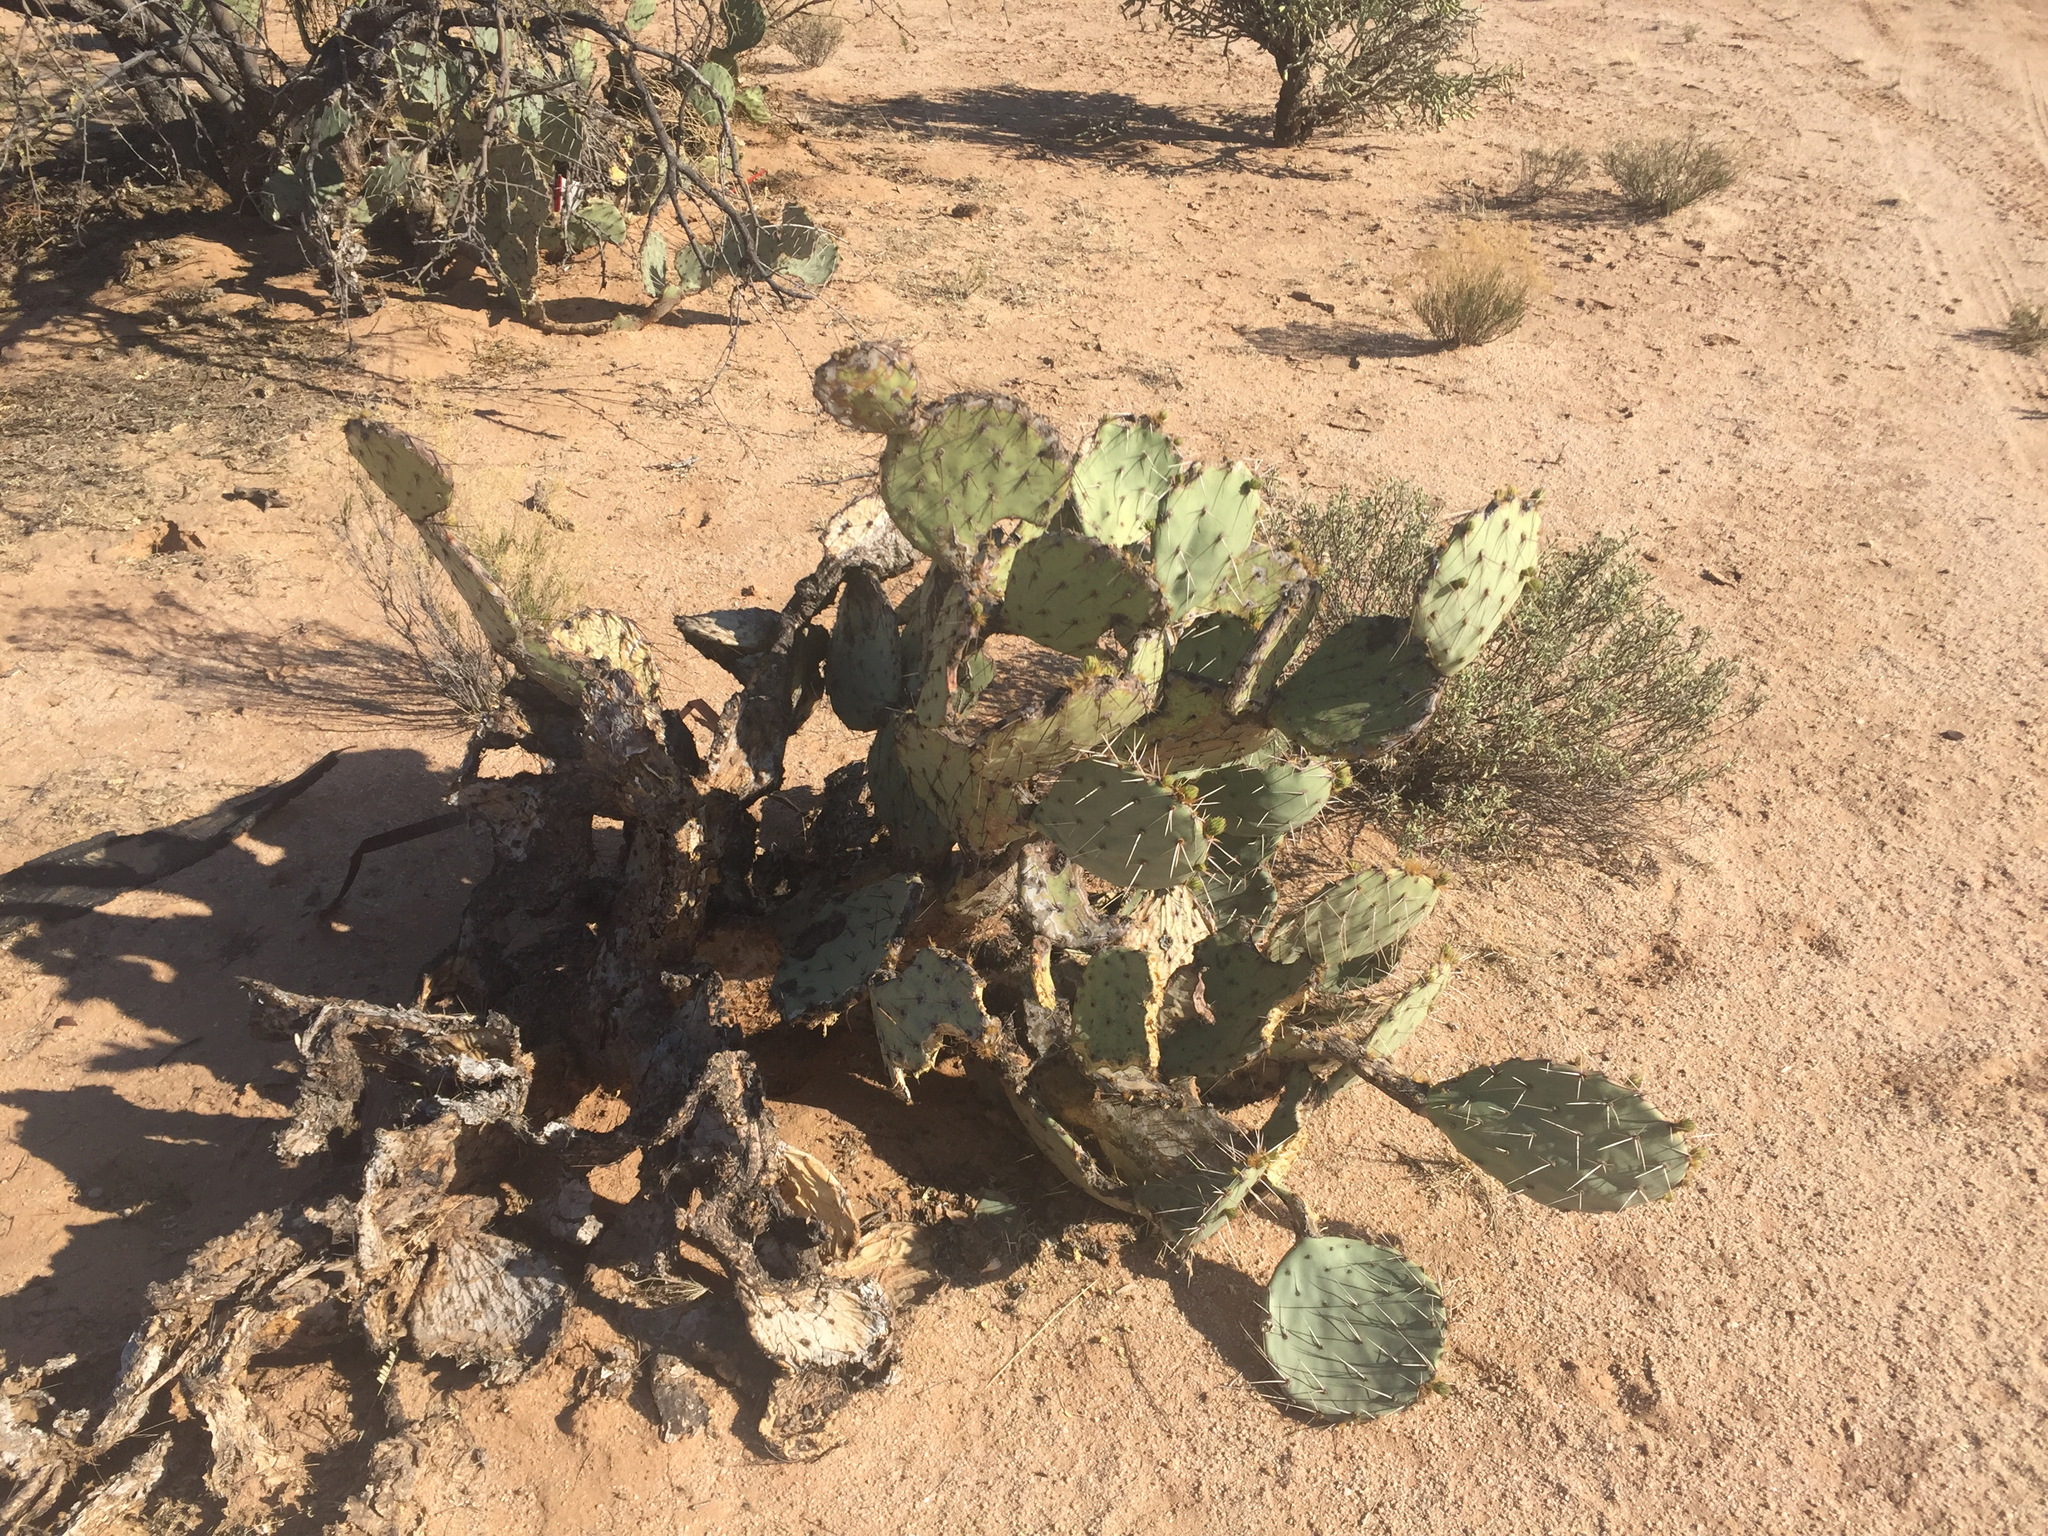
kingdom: Plantae
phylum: Tracheophyta
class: Magnoliopsida
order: Caryophyllales
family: Cactaceae
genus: Opuntia
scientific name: Opuntia engelmannii
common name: Cactus-apple
